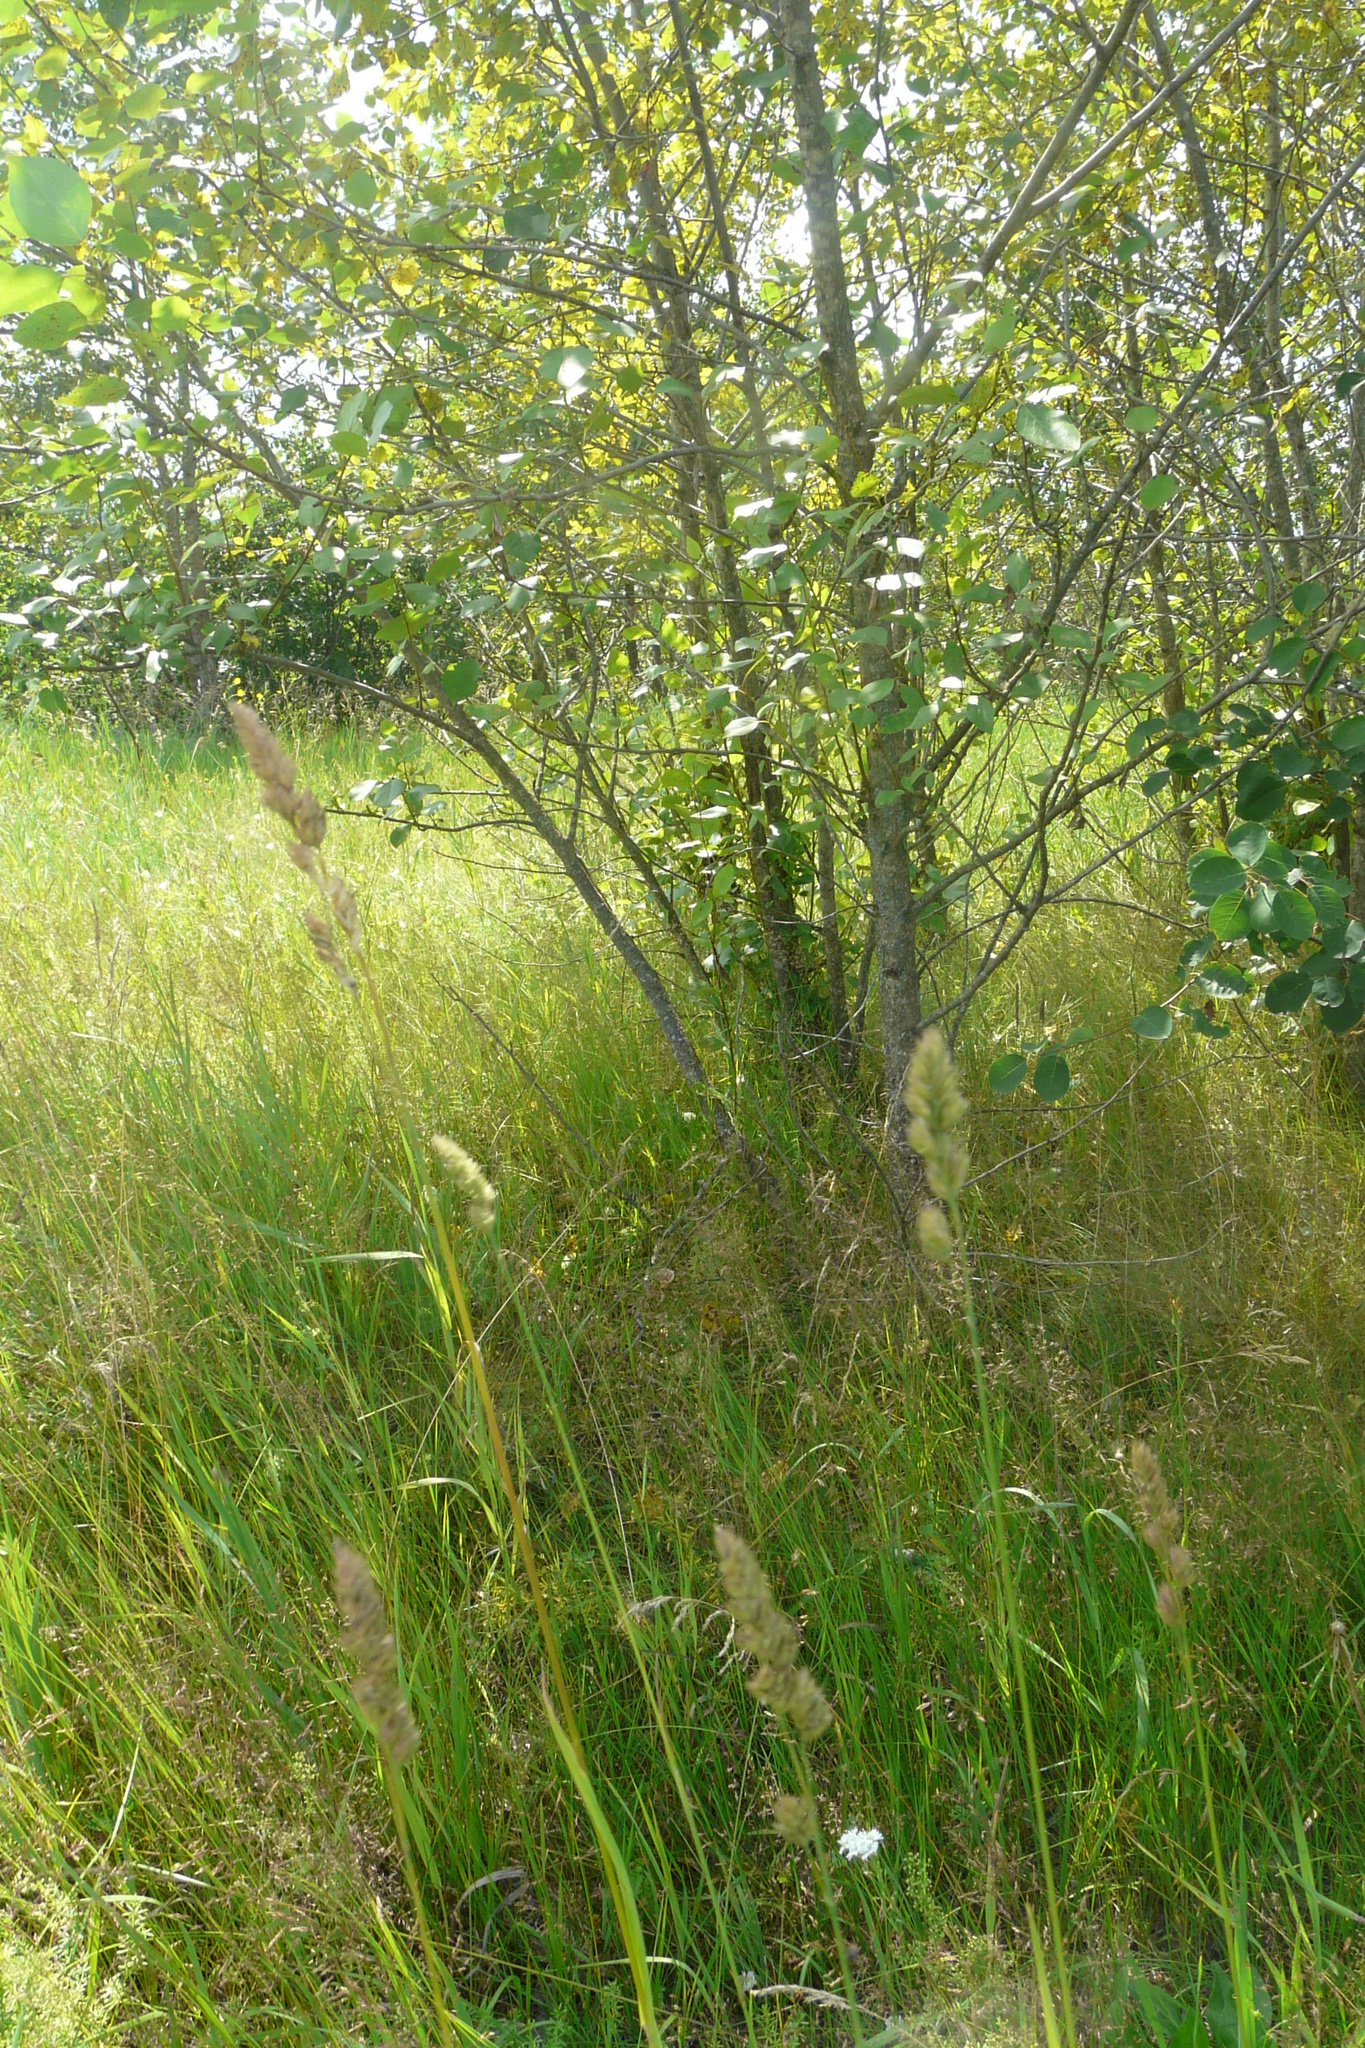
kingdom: Plantae
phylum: Tracheophyta
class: Liliopsida
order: Poales
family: Poaceae
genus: Dactylis
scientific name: Dactylis glomerata
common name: Orchardgrass
